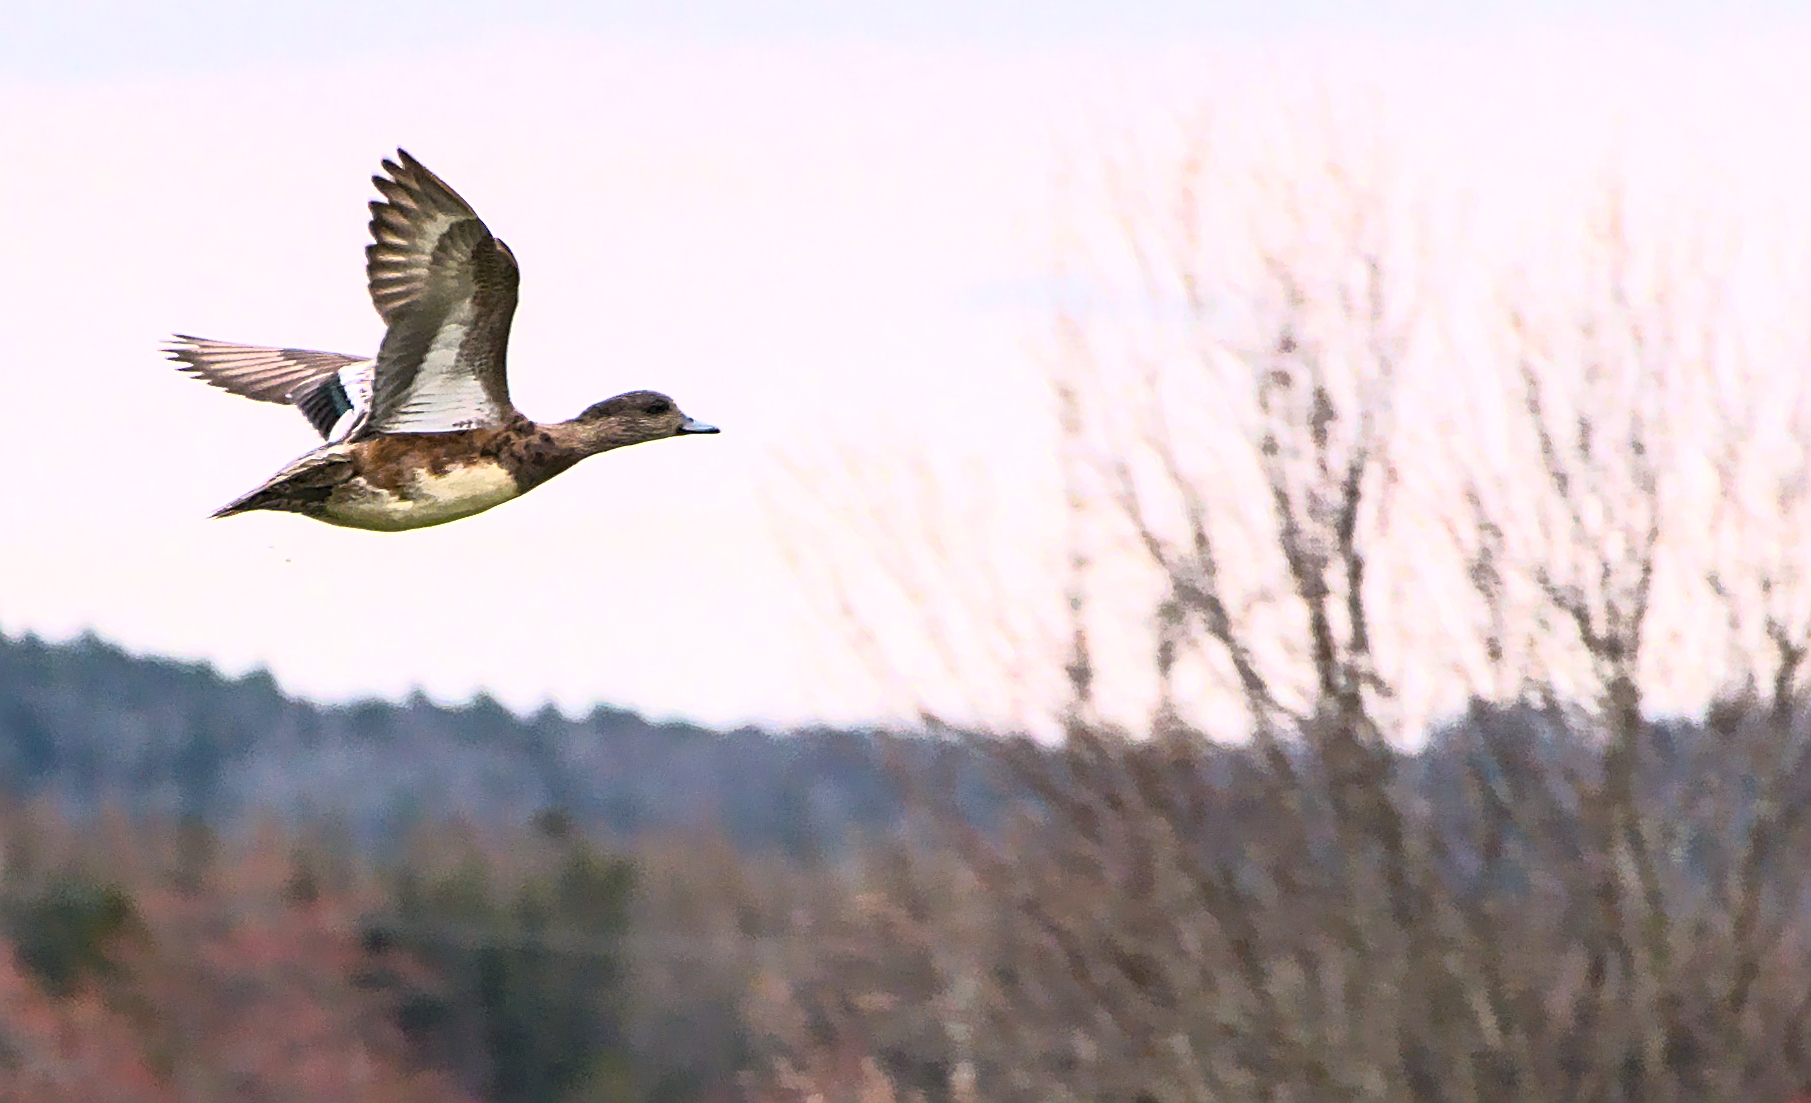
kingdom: Animalia
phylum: Chordata
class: Aves
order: Anseriformes
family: Anatidae
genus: Mareca
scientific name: Mareca americana
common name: American wigeon
